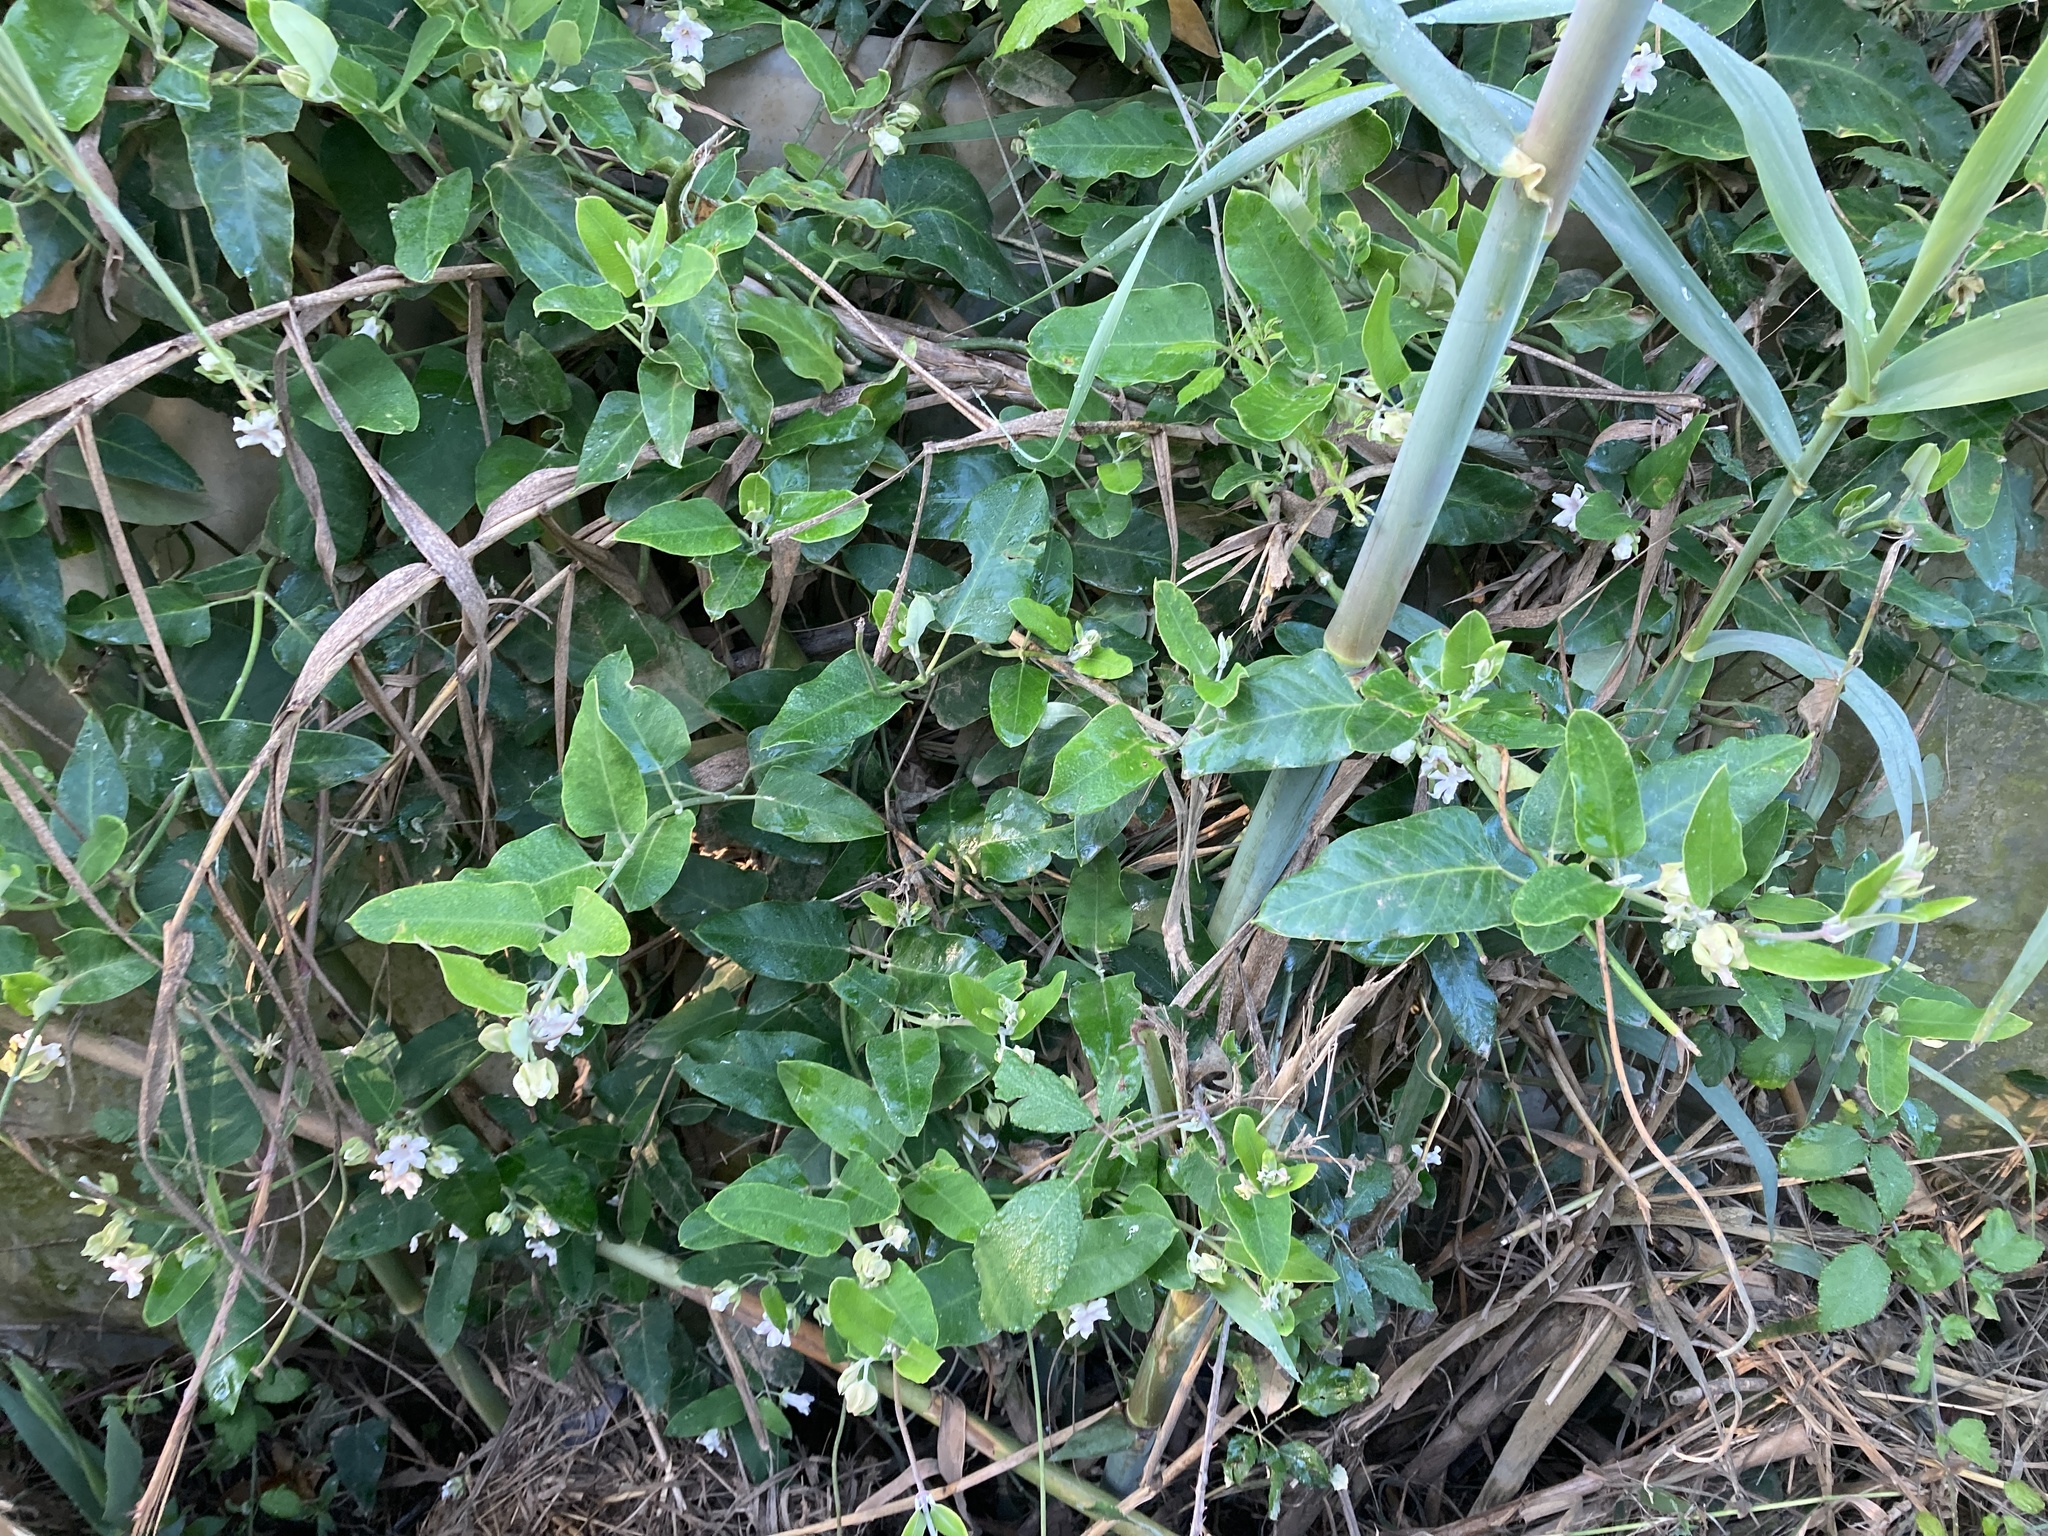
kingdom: Plantae
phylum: Tracheophyta
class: Magnoliopsida
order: Gentianales
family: Apocynaceae
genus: Araujia
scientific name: Araujia sericifera
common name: White bladderflower
